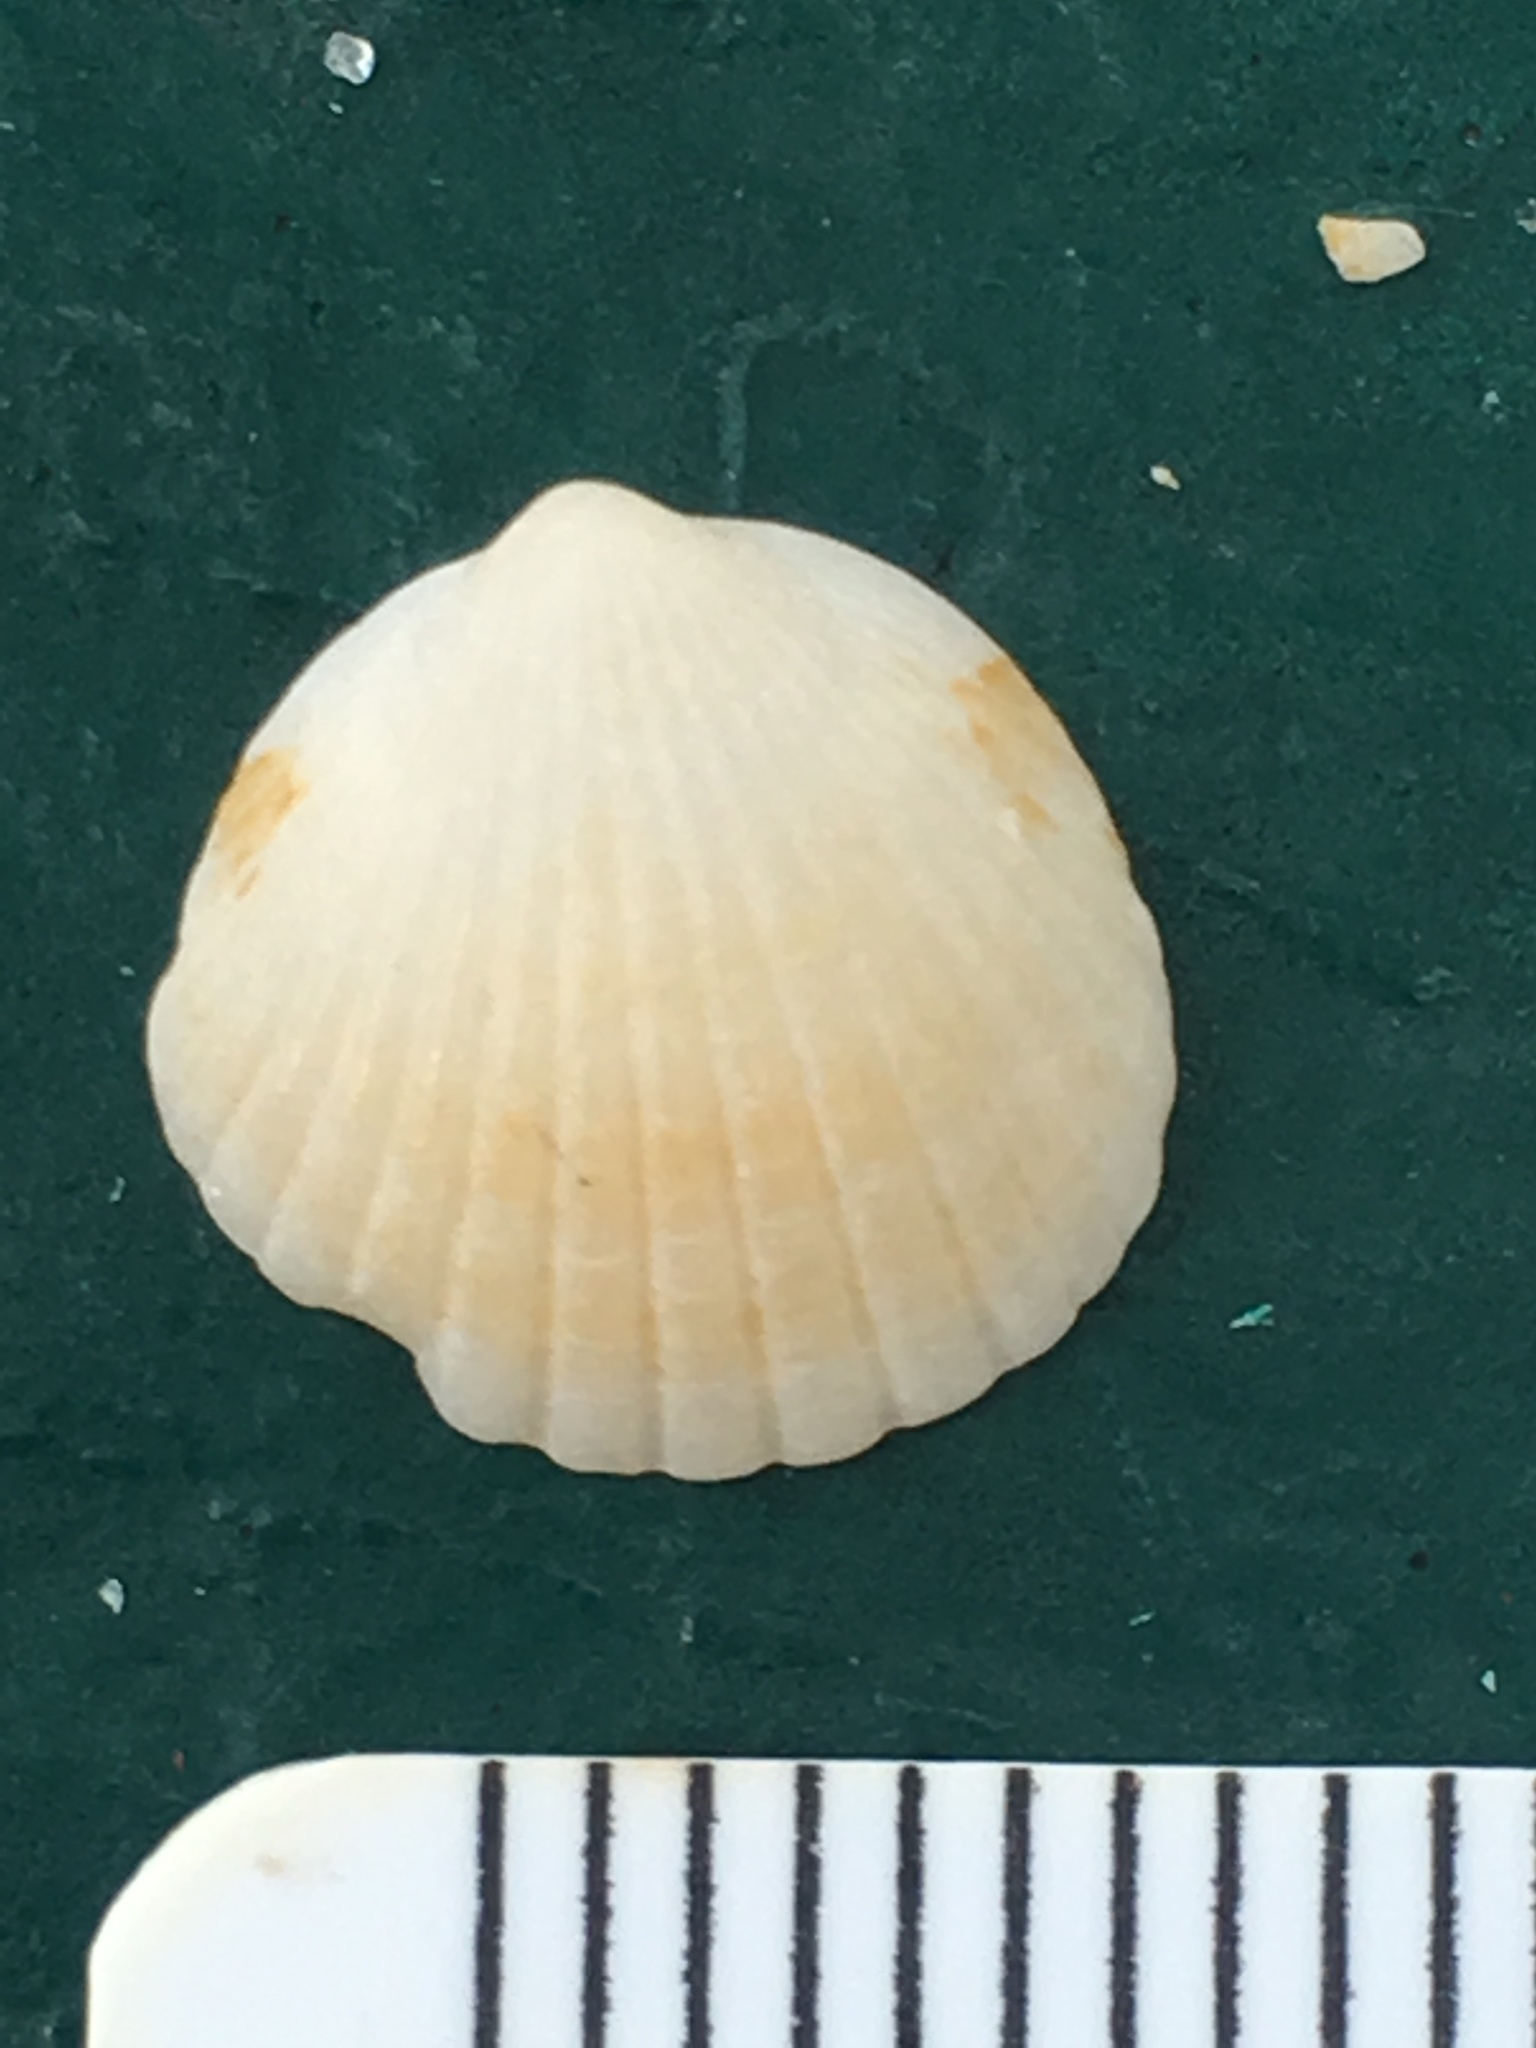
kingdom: Animalia
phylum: Mollusca
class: Bivalvia
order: Arcida
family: Glycymerididae
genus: Tucetona
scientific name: Tucetona pectinata
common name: Comb bittersweet
